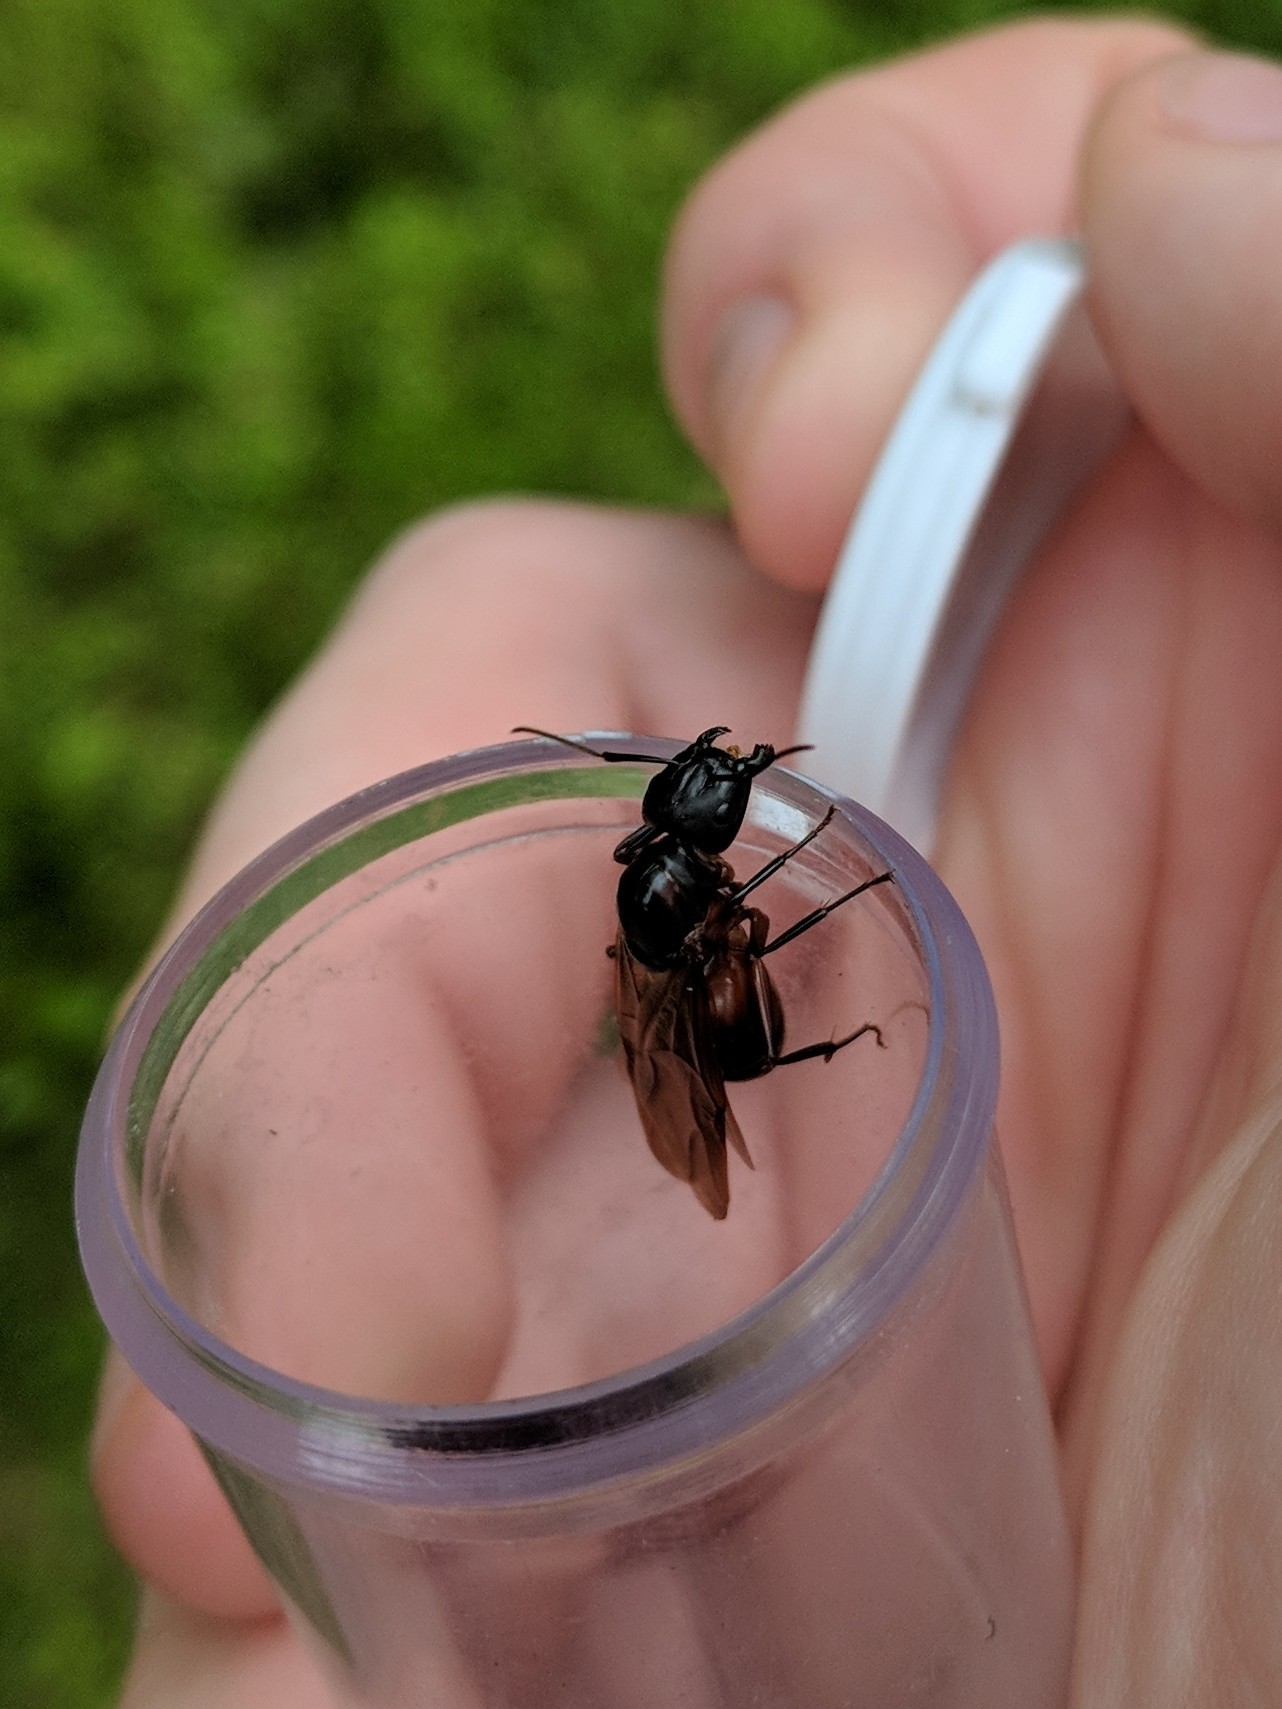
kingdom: Animalia
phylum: Arthropoda
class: Insecta
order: Hymenoptera
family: Formicidae
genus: Camponotus
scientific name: Camponotus chromaiodes
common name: Red carpenter ant
